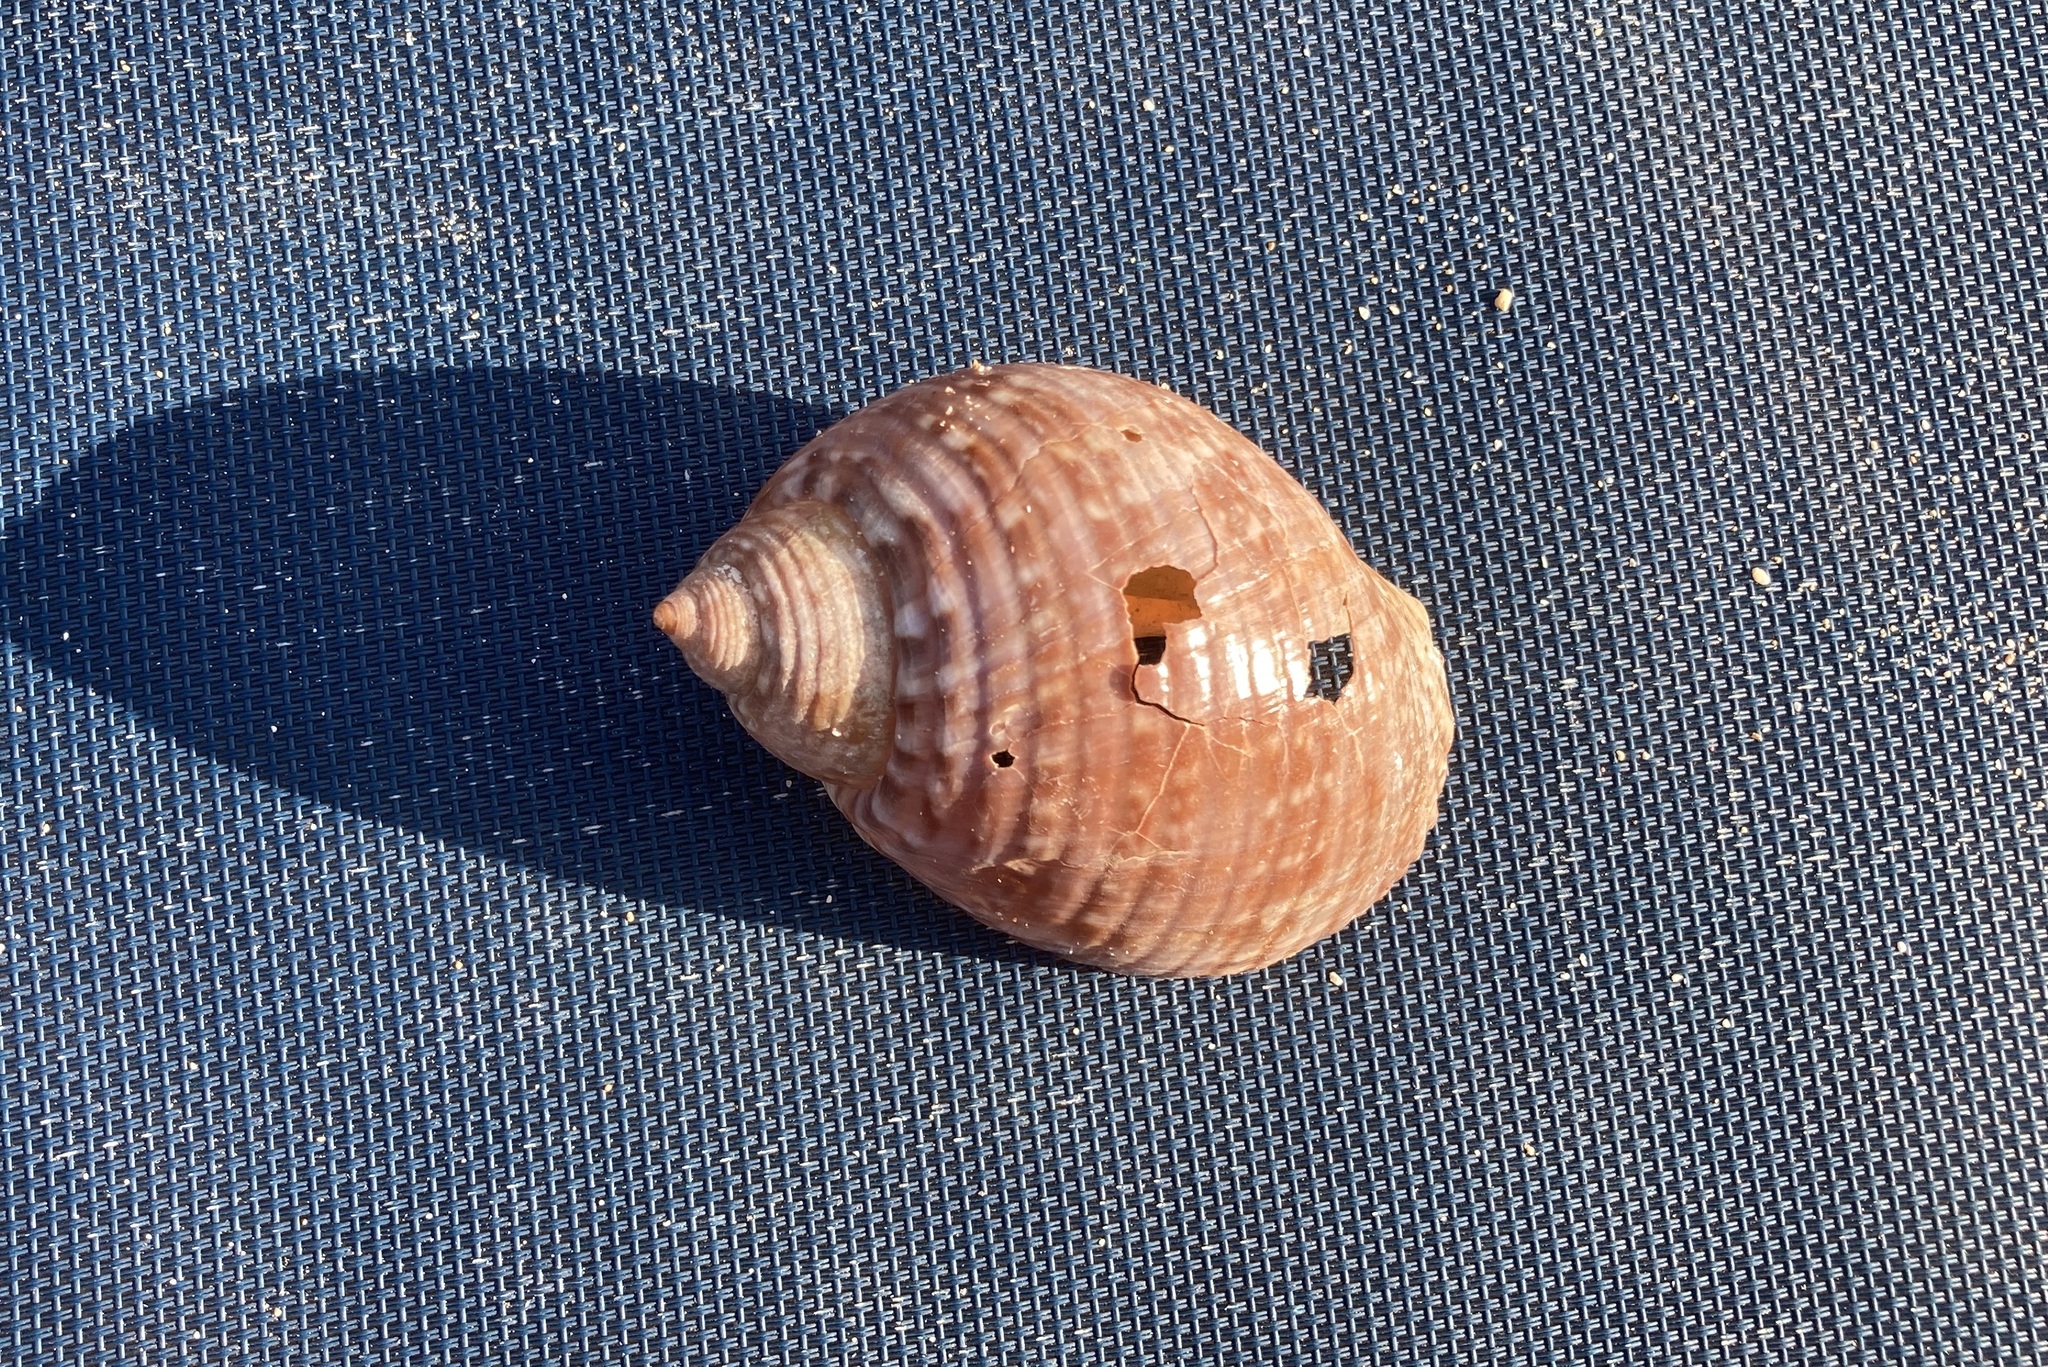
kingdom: Animalia
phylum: Mollusca
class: Gastropoda
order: Littorinimorpha
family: Tonnidae
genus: Tonna
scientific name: Tonna pennata
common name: Atlantic partridge tun
